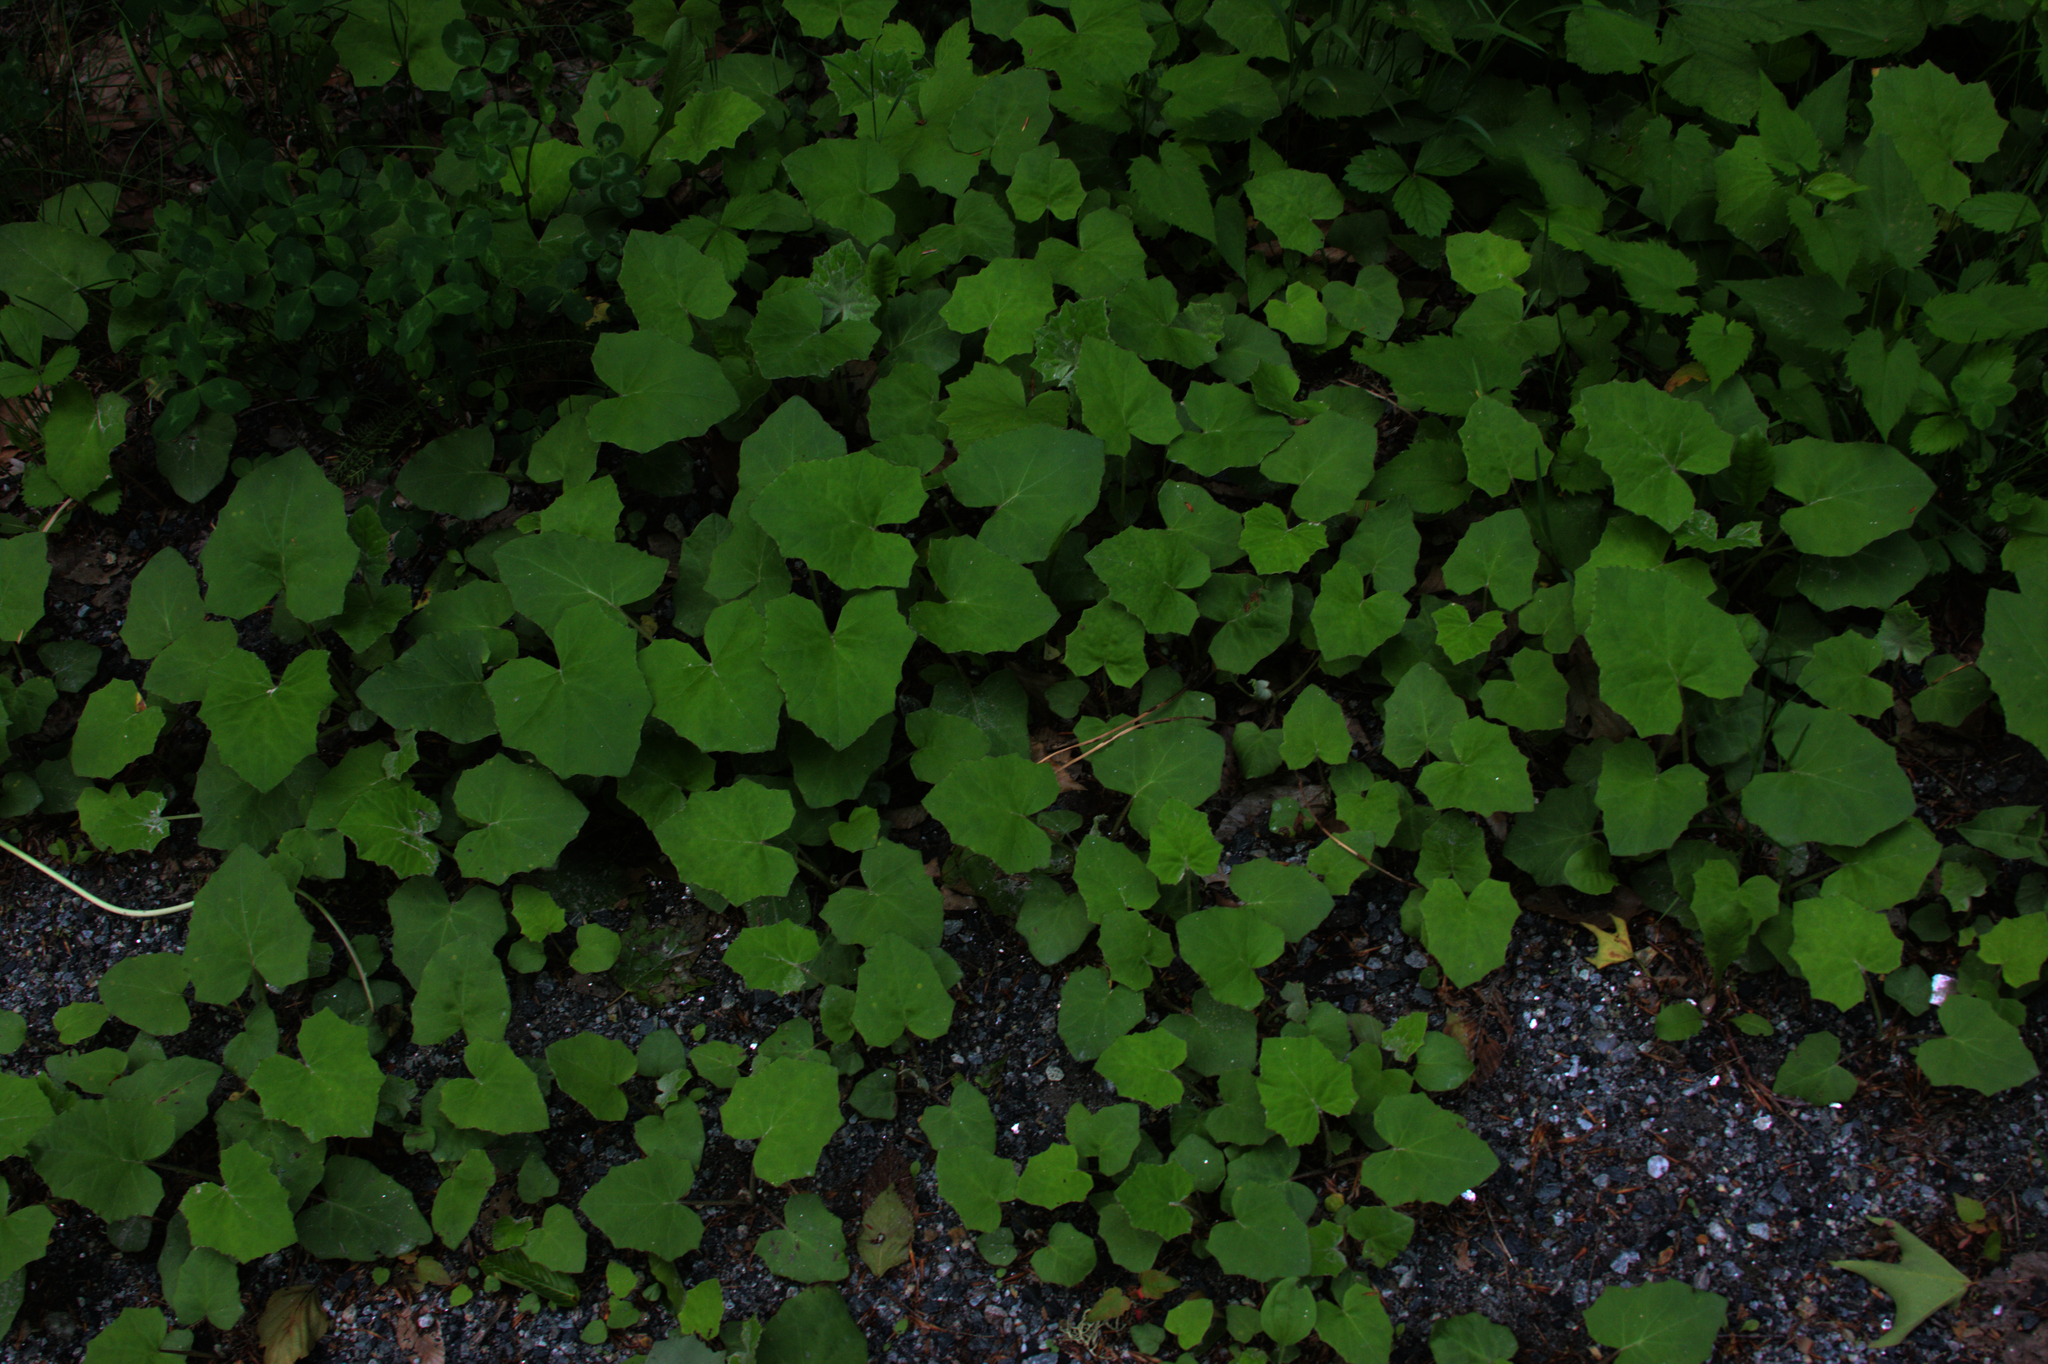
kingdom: Plantae
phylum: Tracheophyta
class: Magnoliopsida
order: Asterales
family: Asteraceae
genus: Tussilago
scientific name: Tussilago farfara
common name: Coltsfoot
